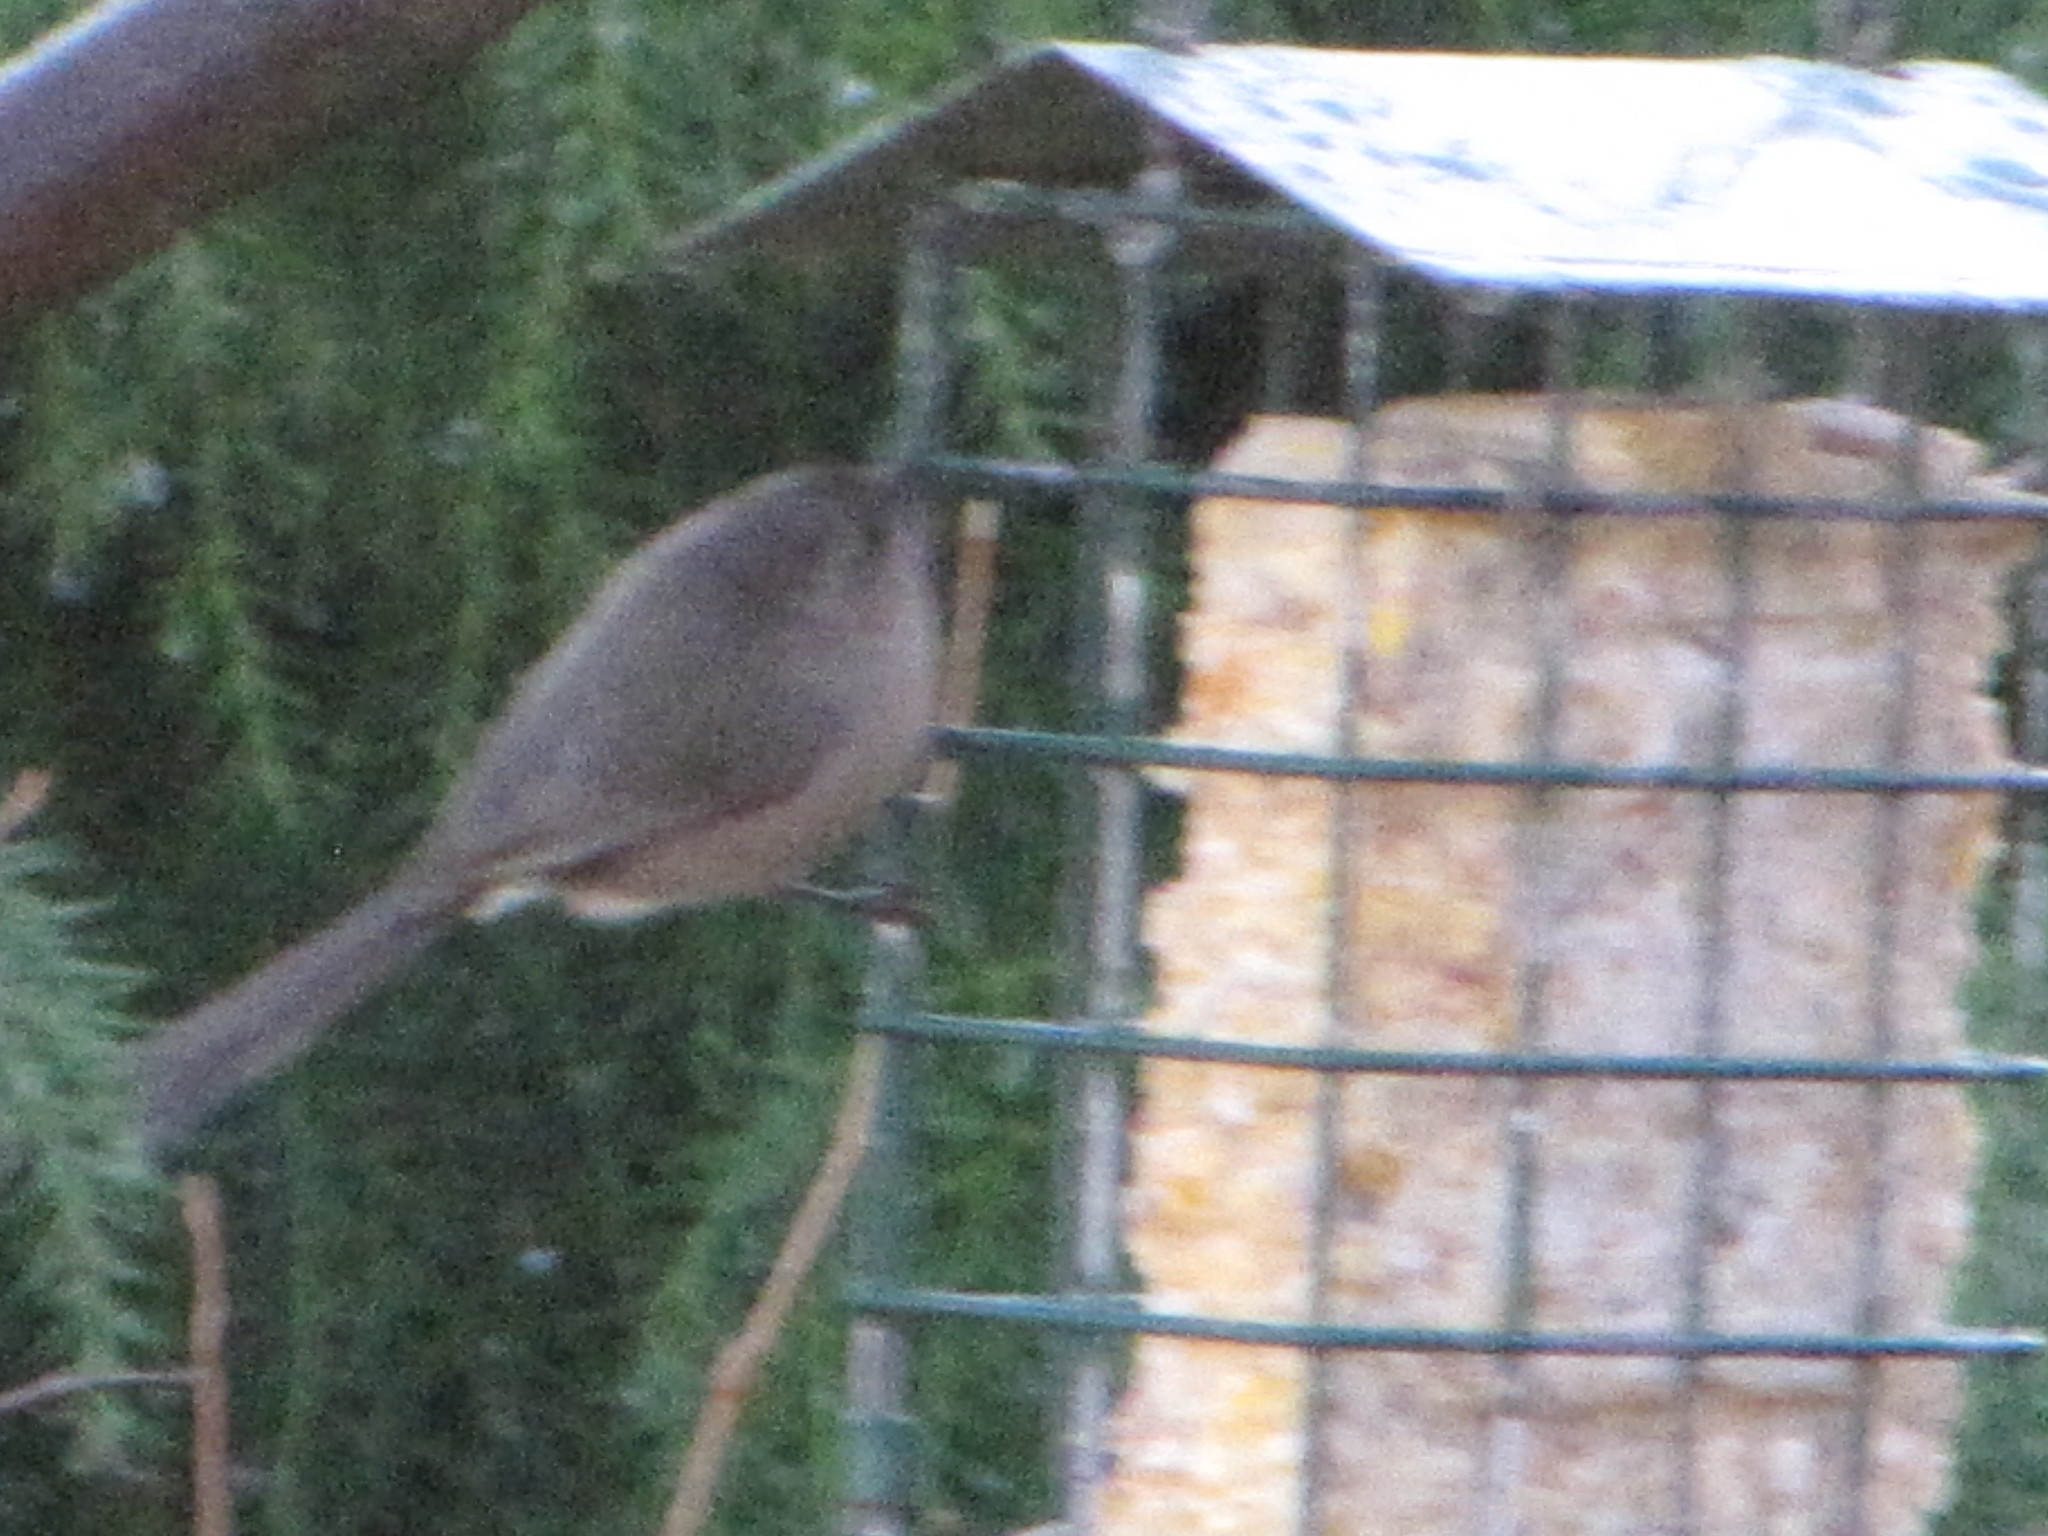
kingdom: Animalia
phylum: Chordata
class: Aves
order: Passeriformes
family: Aegithalidae
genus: Psaltriparus
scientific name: Psaltriparus minimus
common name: American bushtit
